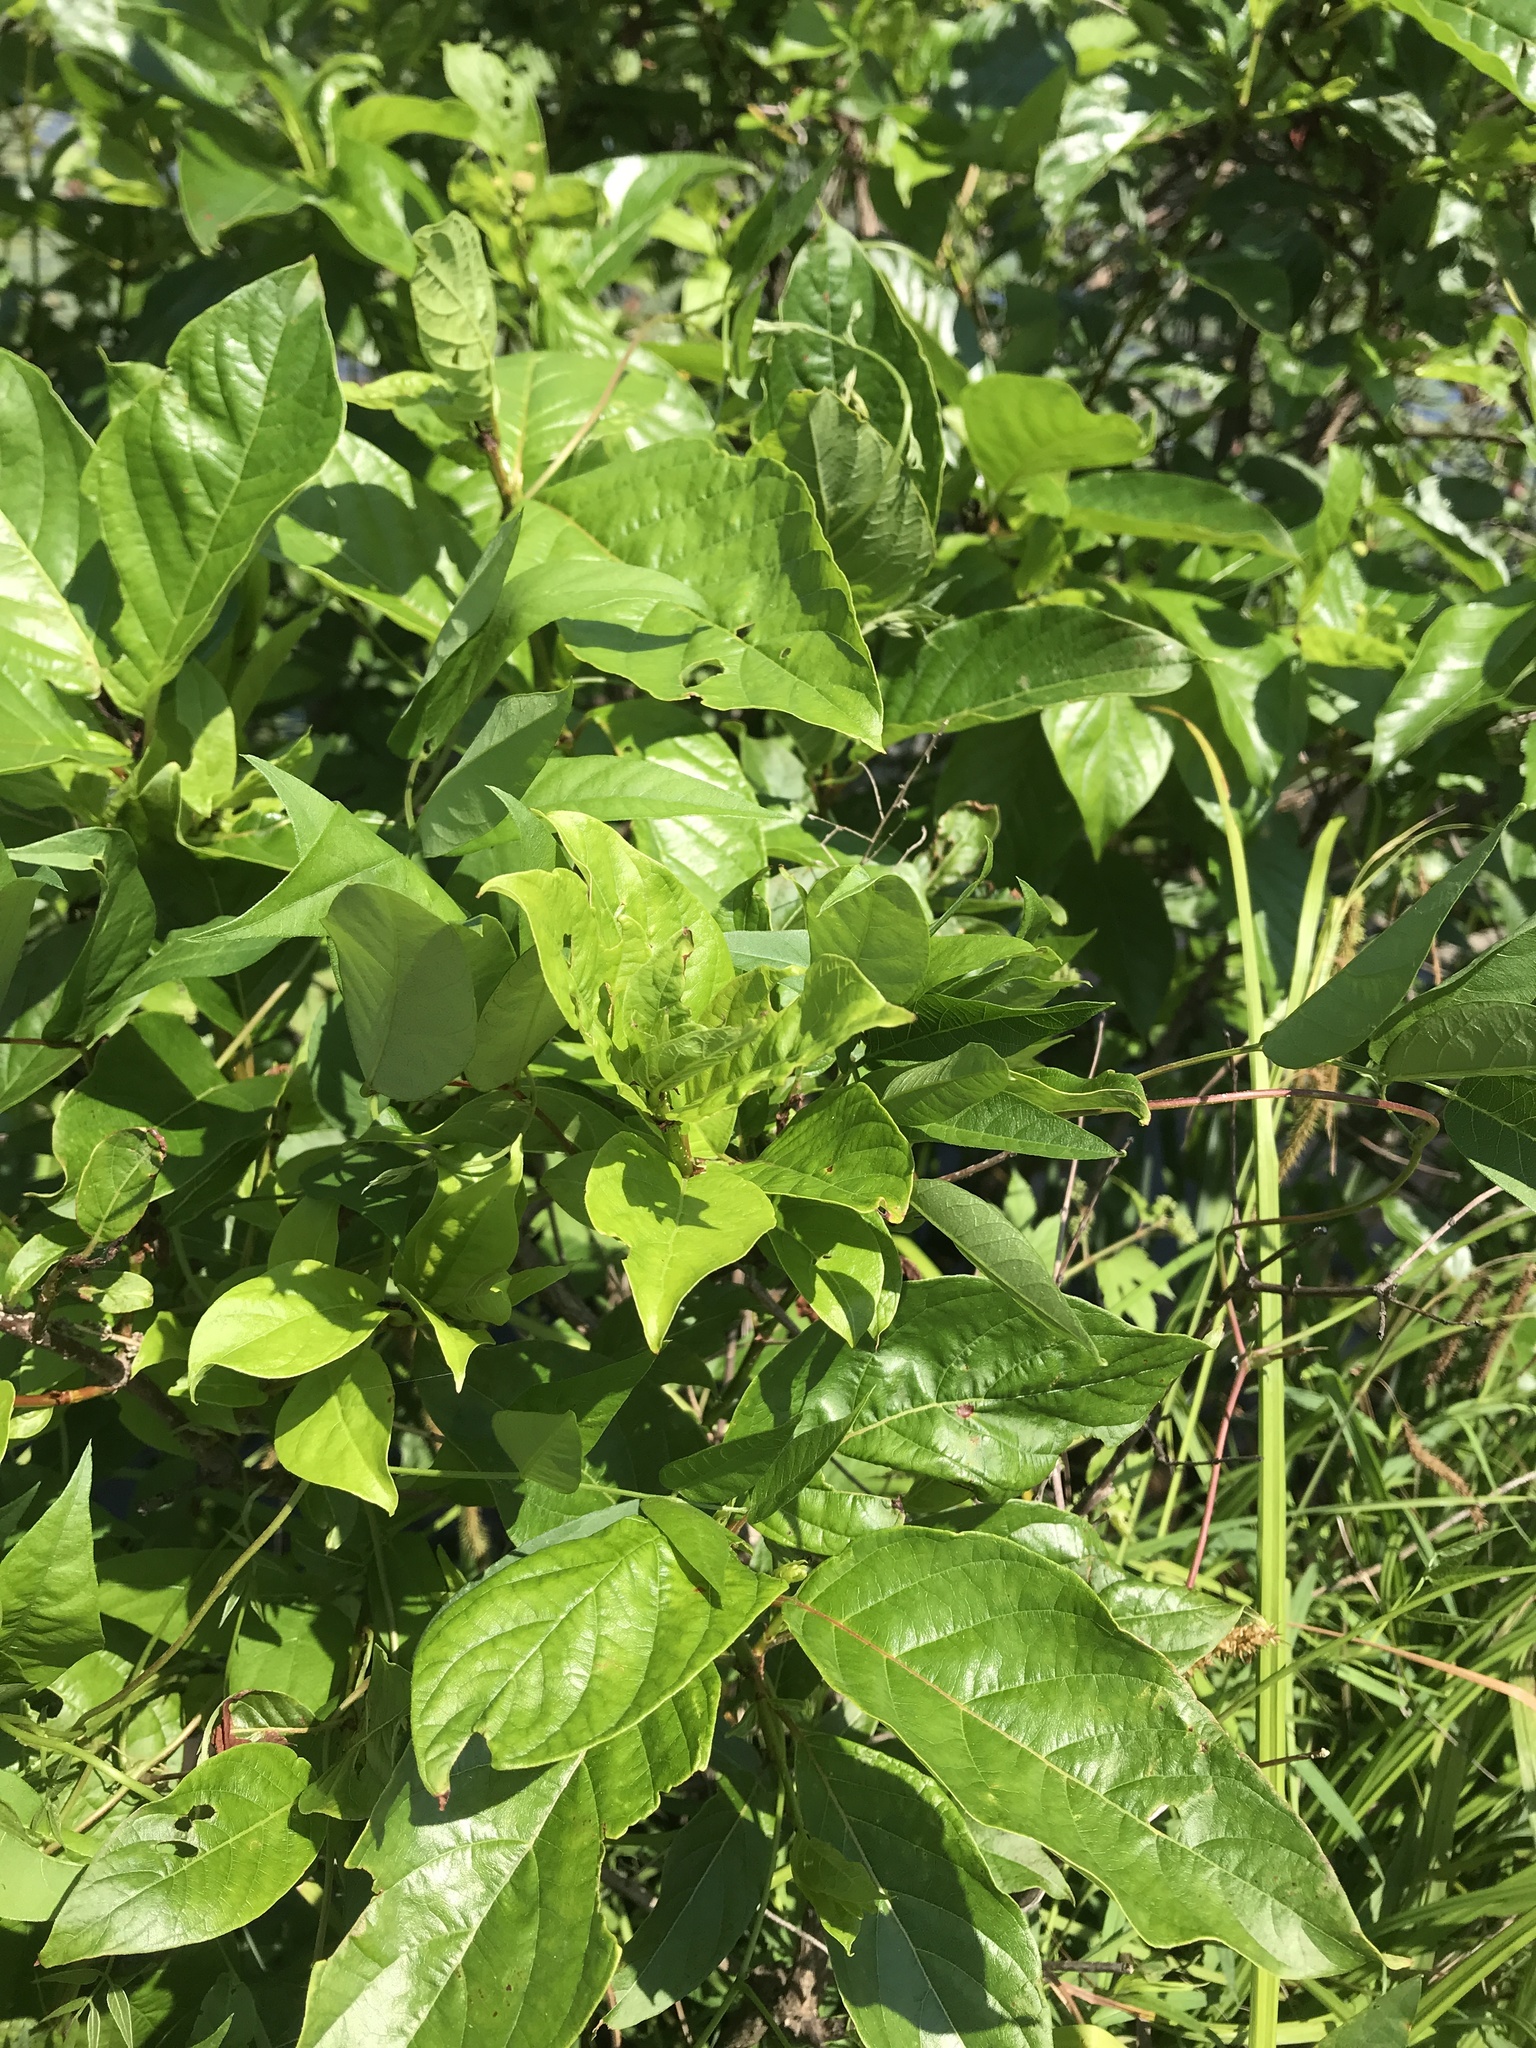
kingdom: Plantae
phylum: Tracheophyta
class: Magnoliopsida
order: Gentianales
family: Rubiaceae
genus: Cephalanthus
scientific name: Cephalanthus occidentalis
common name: Button-willow
